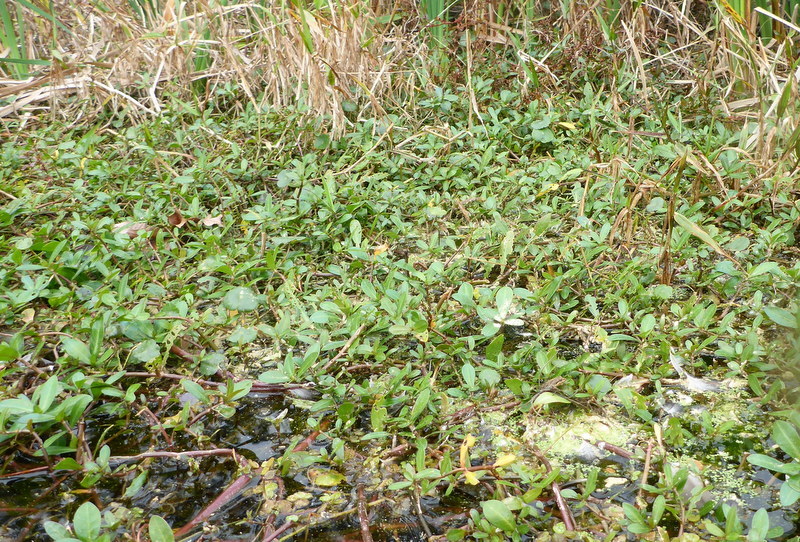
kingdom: Plantae
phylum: Tracheophyta
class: Magnoliopsida
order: Caryophyllales
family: Amaranthaceae
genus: Alternanthera
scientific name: Alternanthera philoxeroides
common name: Alligatorweed
